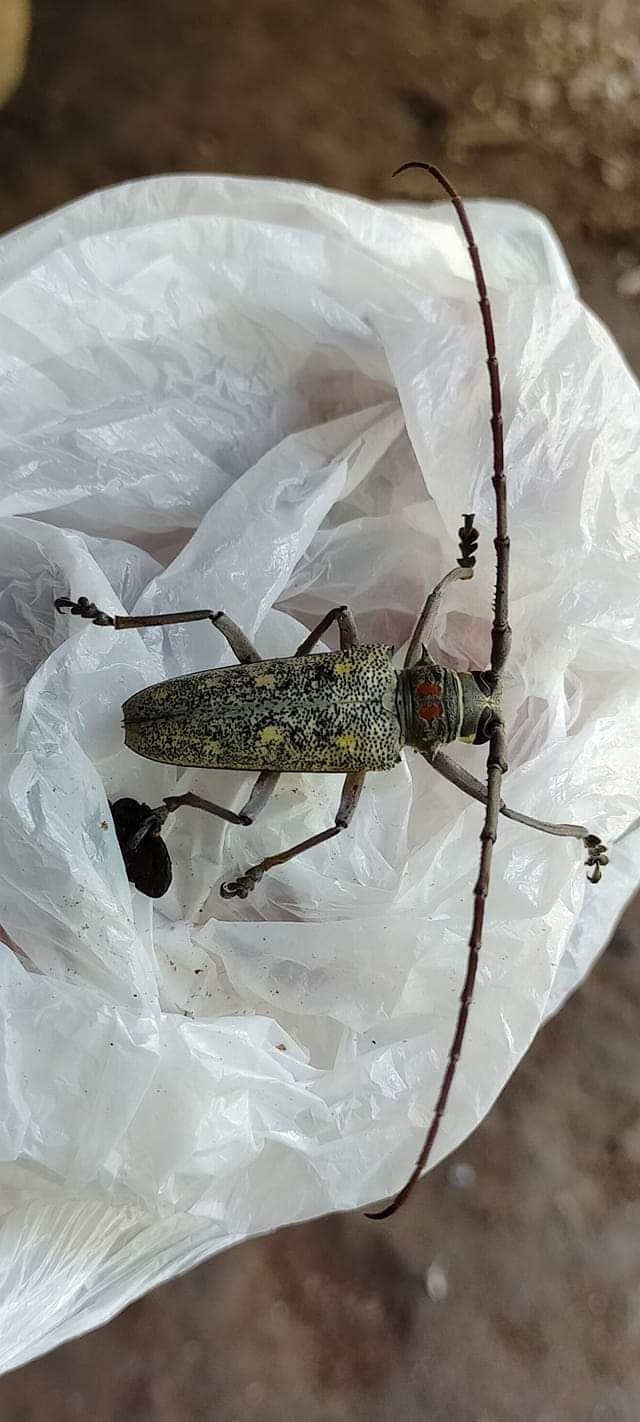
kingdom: Animalia
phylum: Arthropoda
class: Insecta
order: Coleoptera
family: Cerambycidae
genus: Batocera
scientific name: Batocera humeridens
